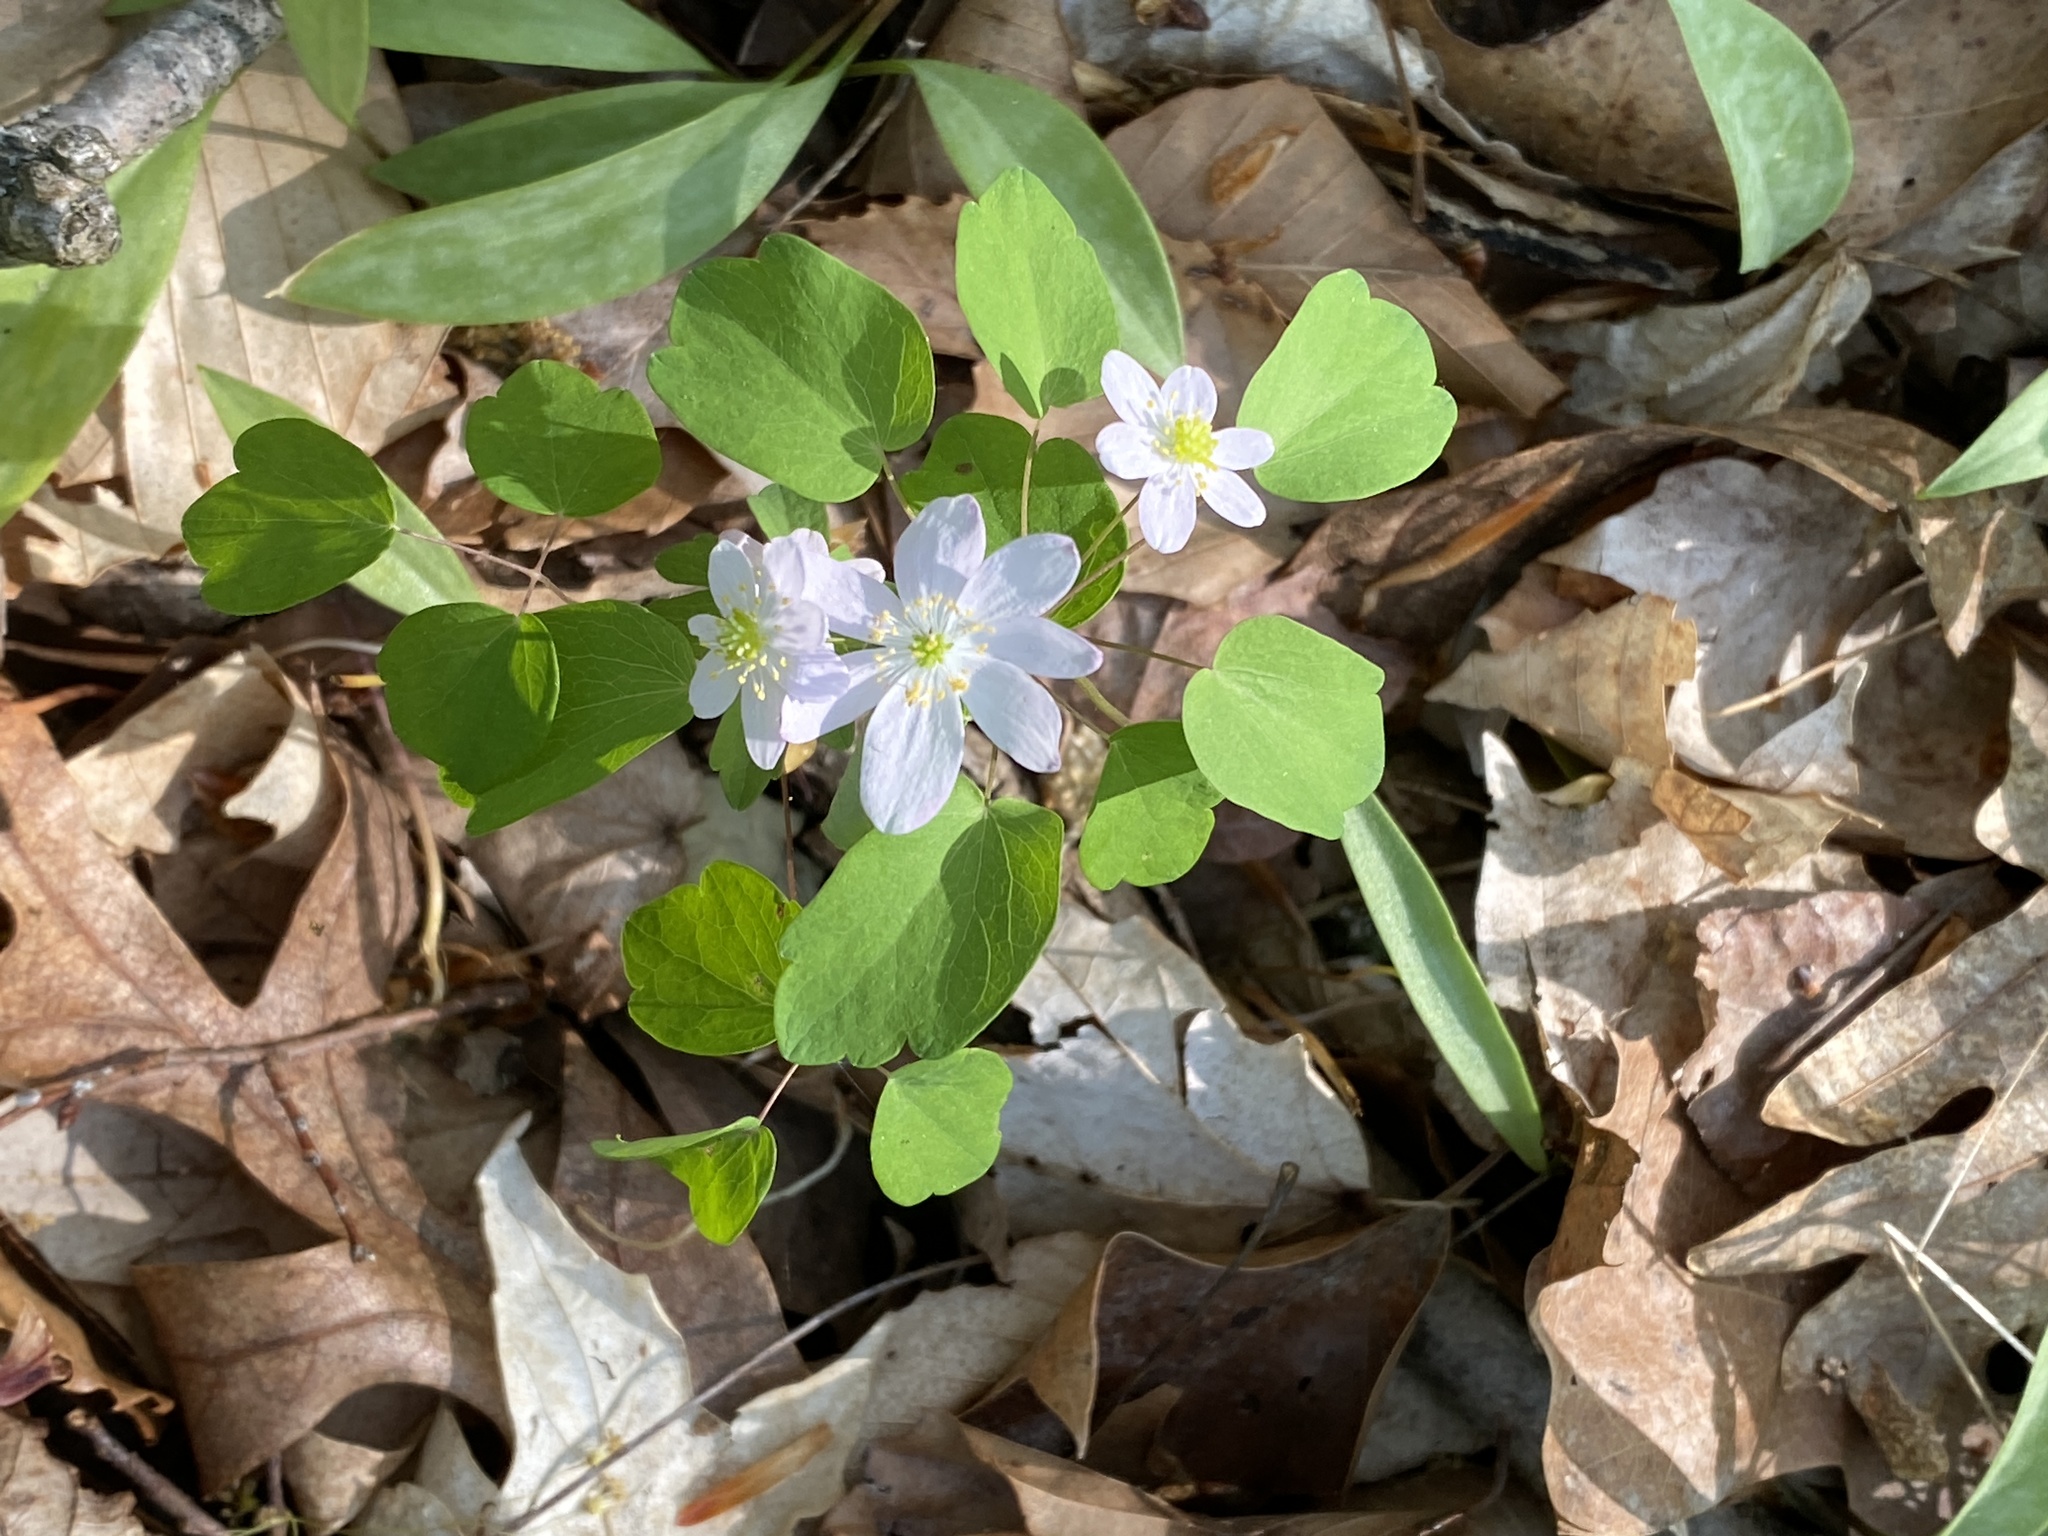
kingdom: Plantae
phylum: Tracheophyta
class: Magnoliopsida
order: Ranunculales
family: Ranunculaceae
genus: Thalictrum
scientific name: Thalictrum thalictroides
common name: Rue-anemone
